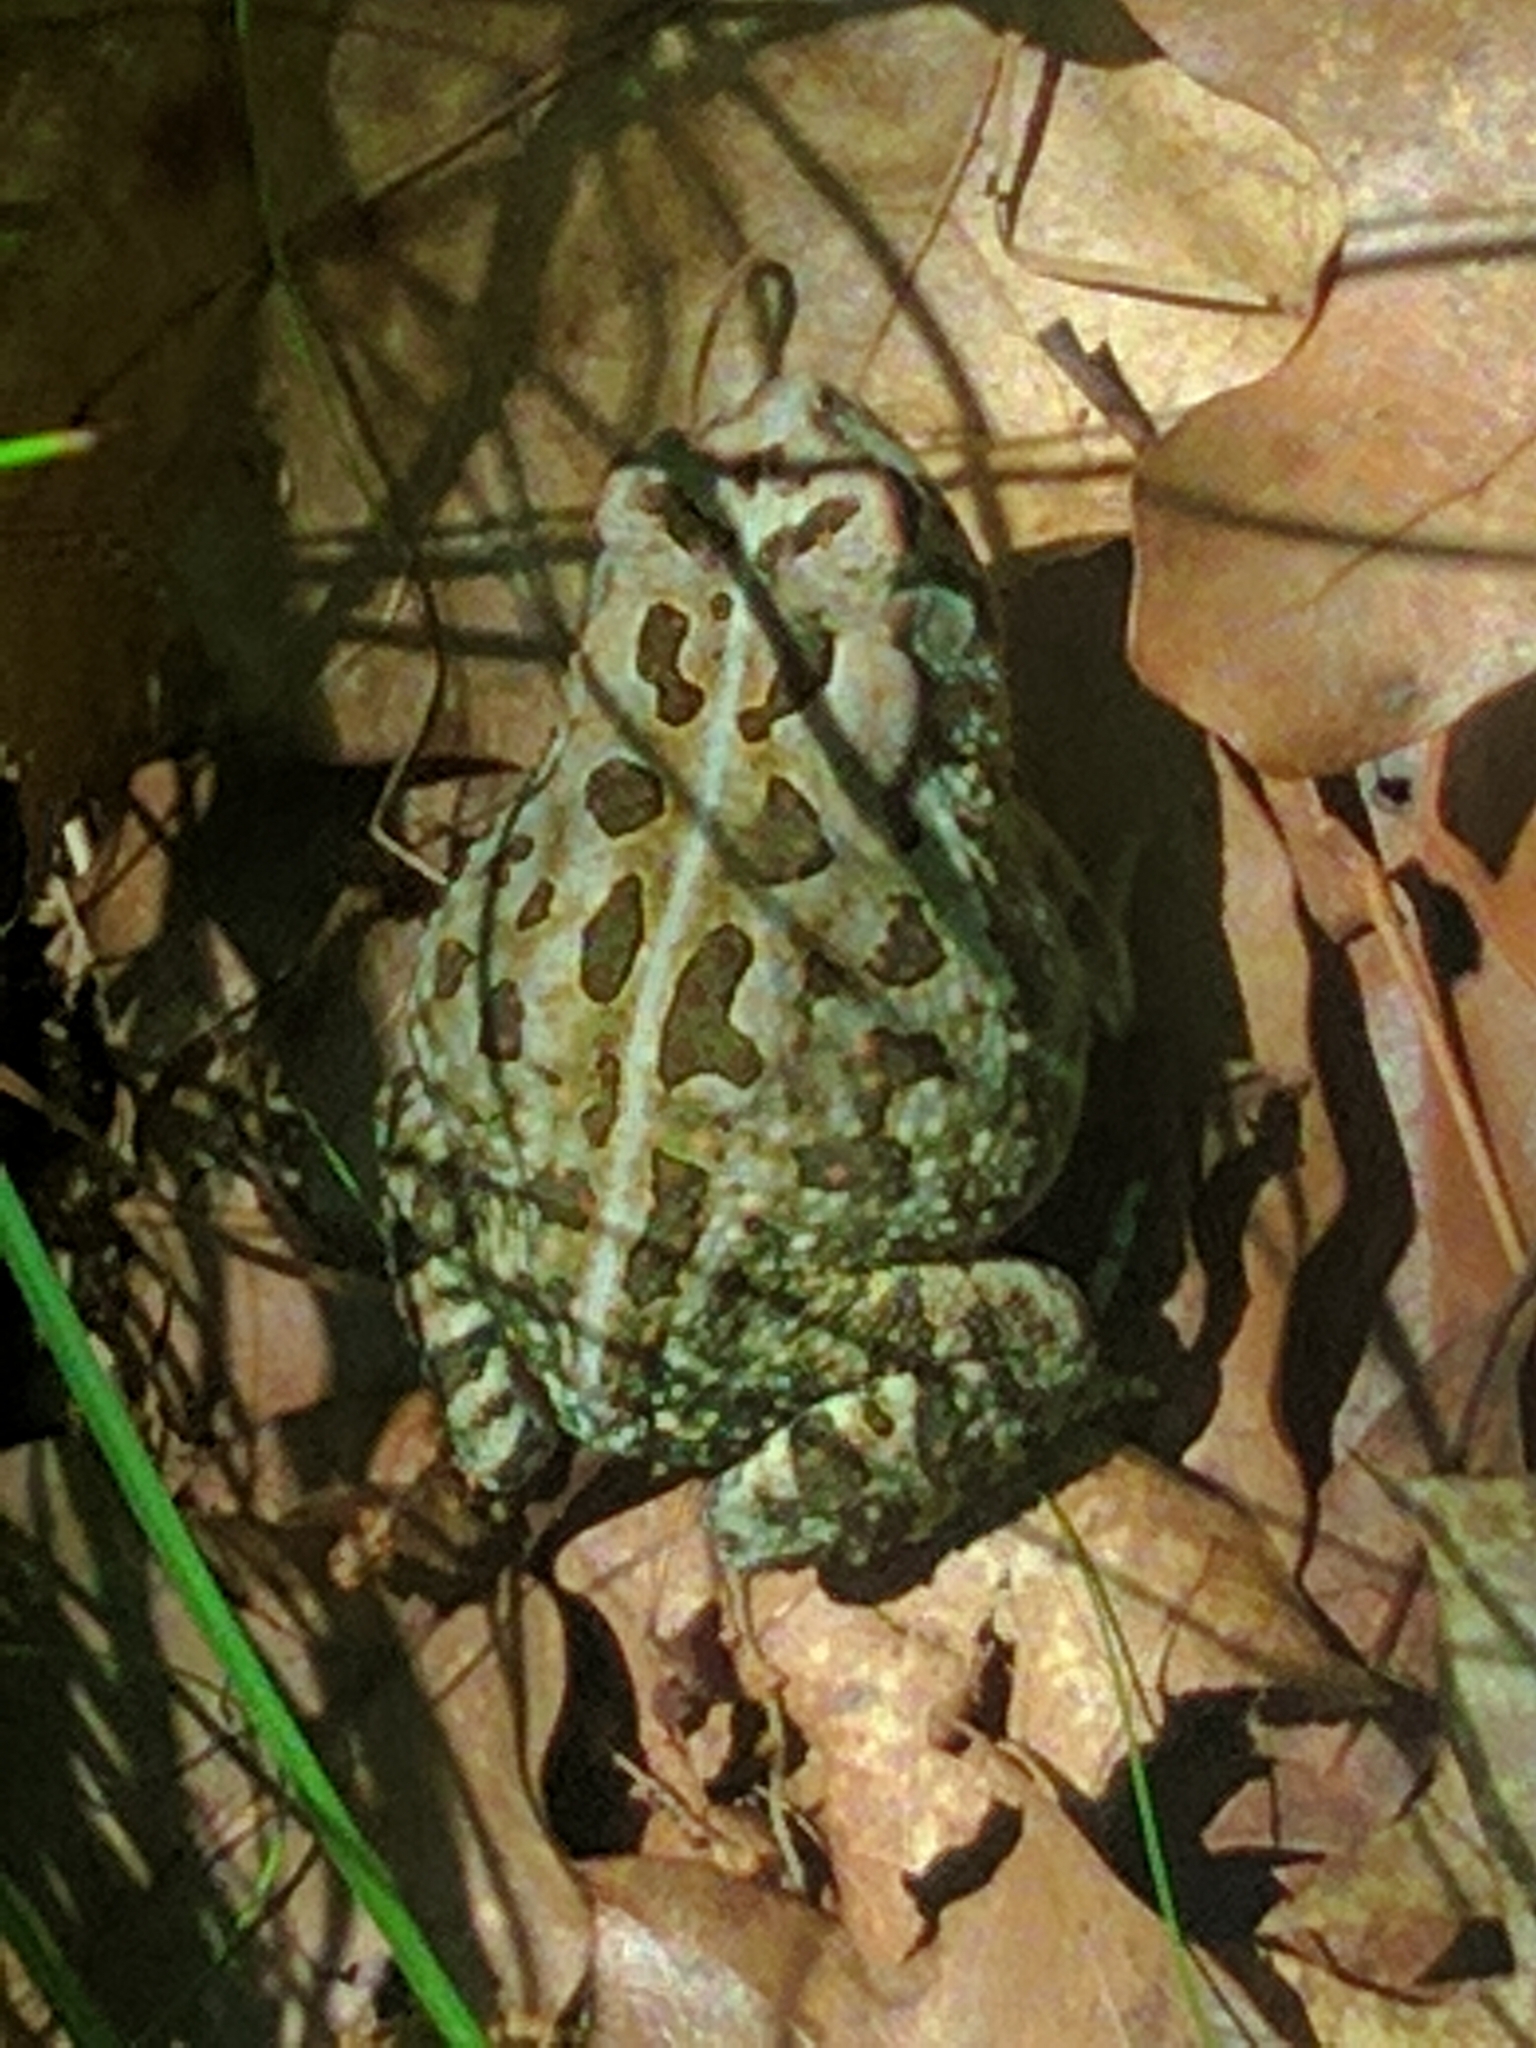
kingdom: Animalia
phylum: Chordata
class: Amphibia
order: Anura
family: Bufonidae
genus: Anaxyrus
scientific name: Anaxyrus fowleri
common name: Fowler's toad
